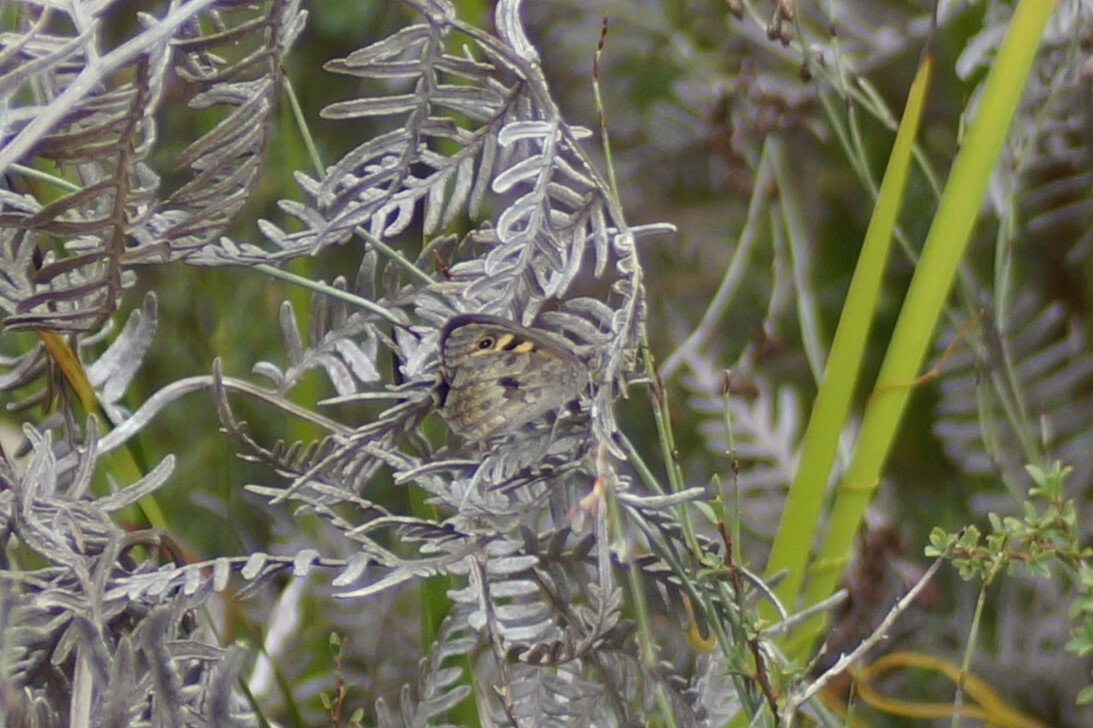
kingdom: Animalia
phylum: Arthropoda
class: Insecta
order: Lepidoptera
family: Nymphalidae
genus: Geitoneura
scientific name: Geitoneura klugii
